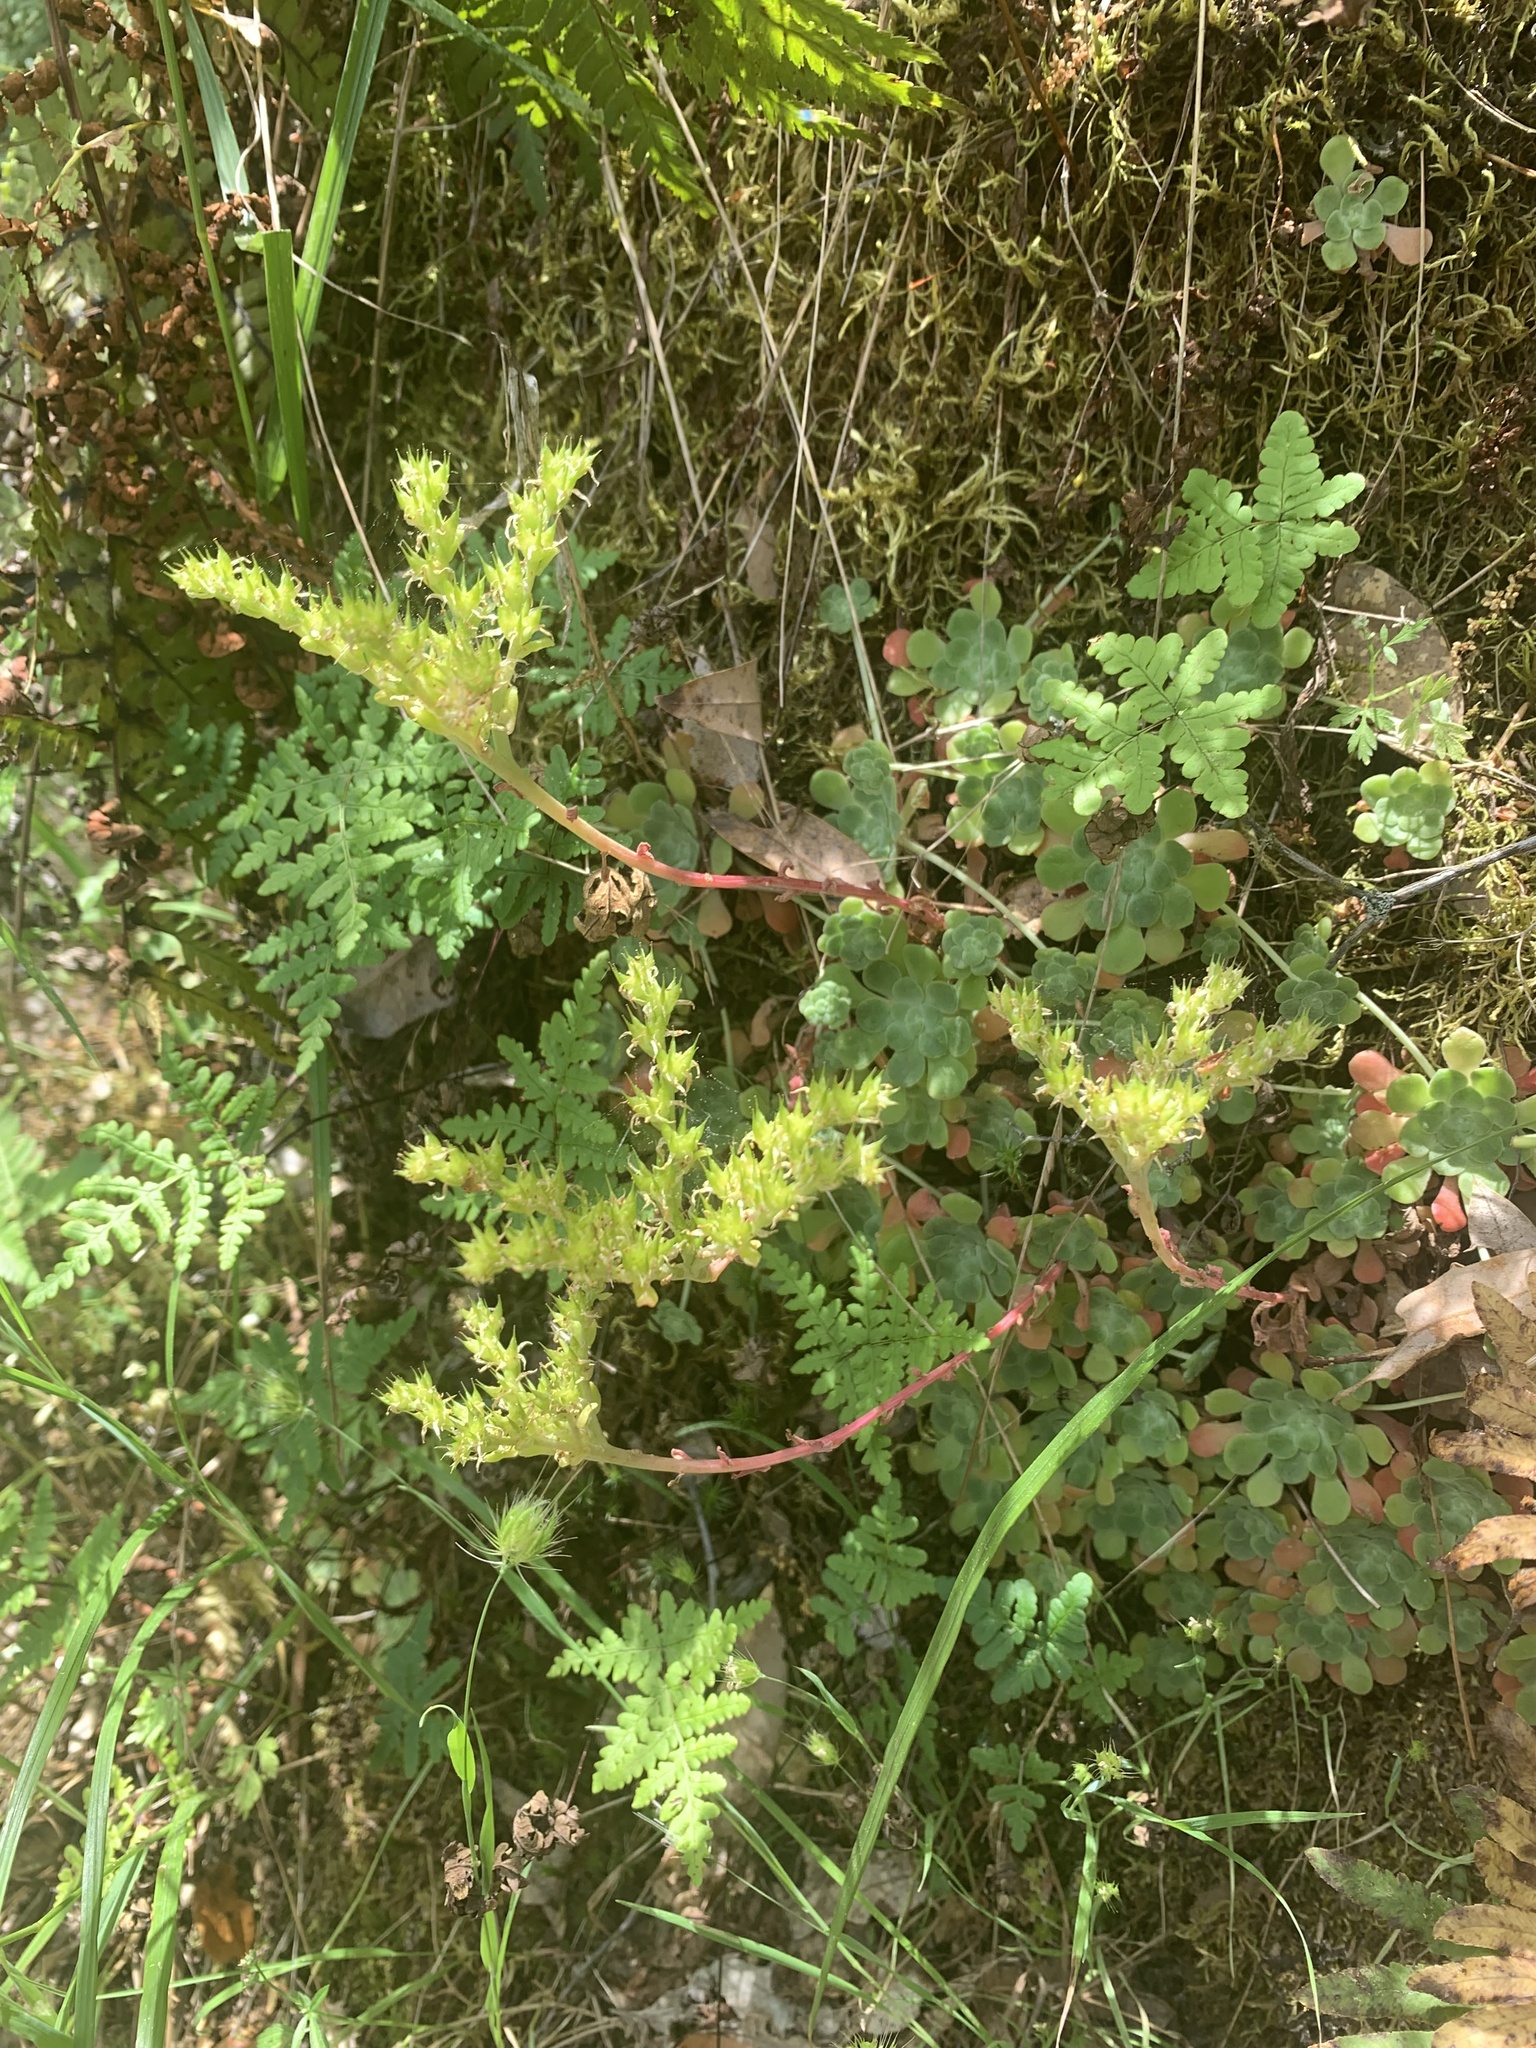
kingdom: Plantae
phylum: Tracheophyta
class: Magnoliopsida
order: Saxifragales
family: Crassulaceae
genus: Sedum
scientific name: Sedum spathulifolium
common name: Colorado stonecrop
